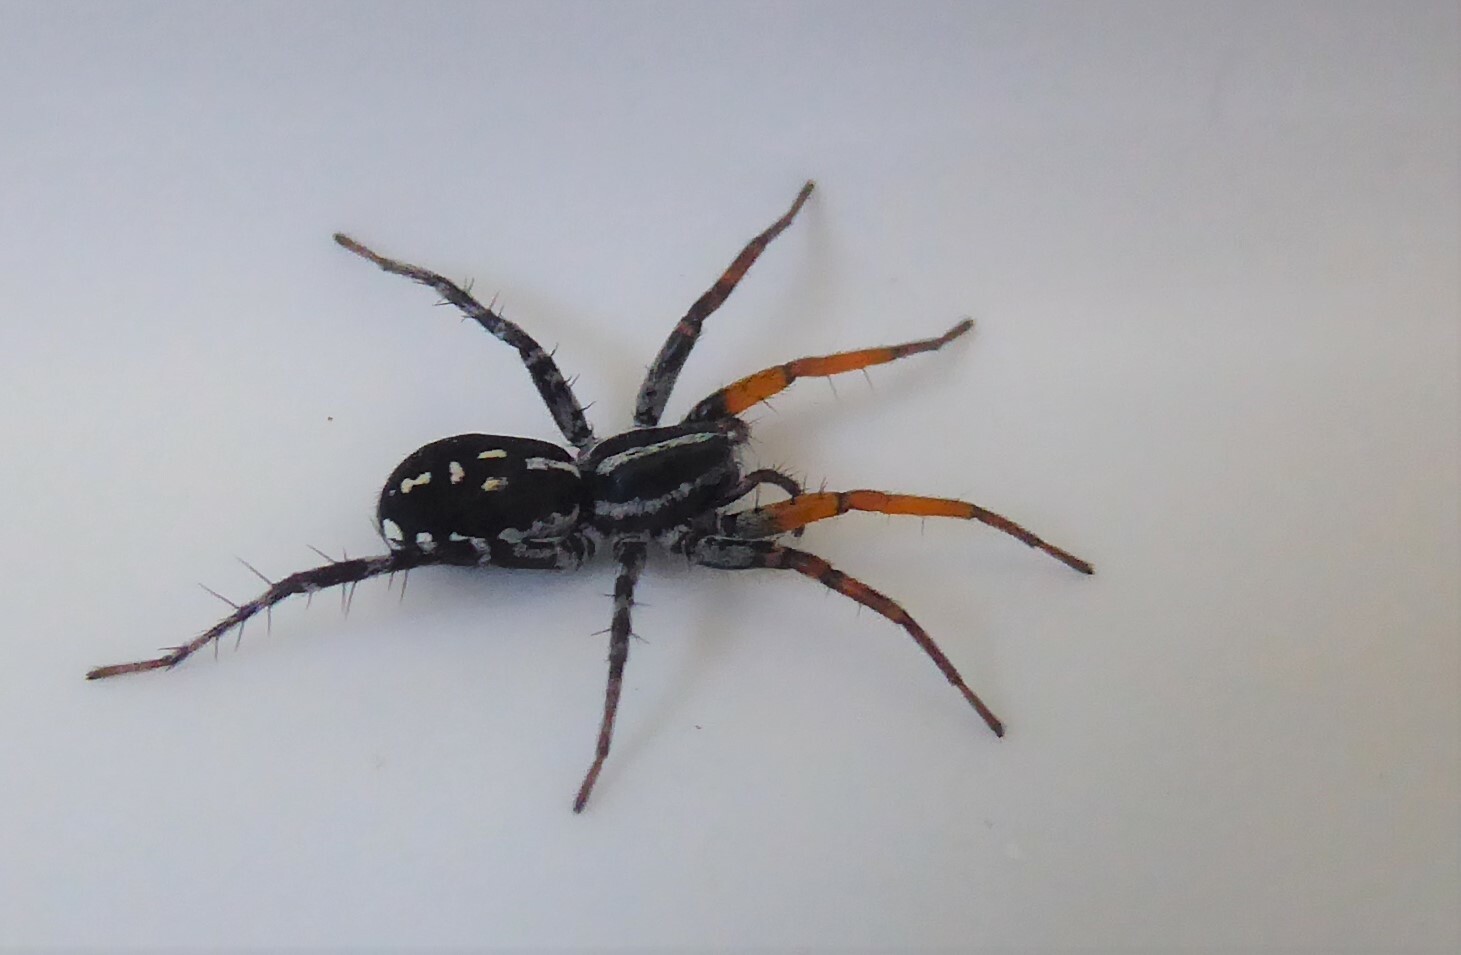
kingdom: Animalia
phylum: Arthropoda
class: Arachnida
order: Araneae
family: Corinnidae
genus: Nyssus
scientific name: Nyssus coloripes
